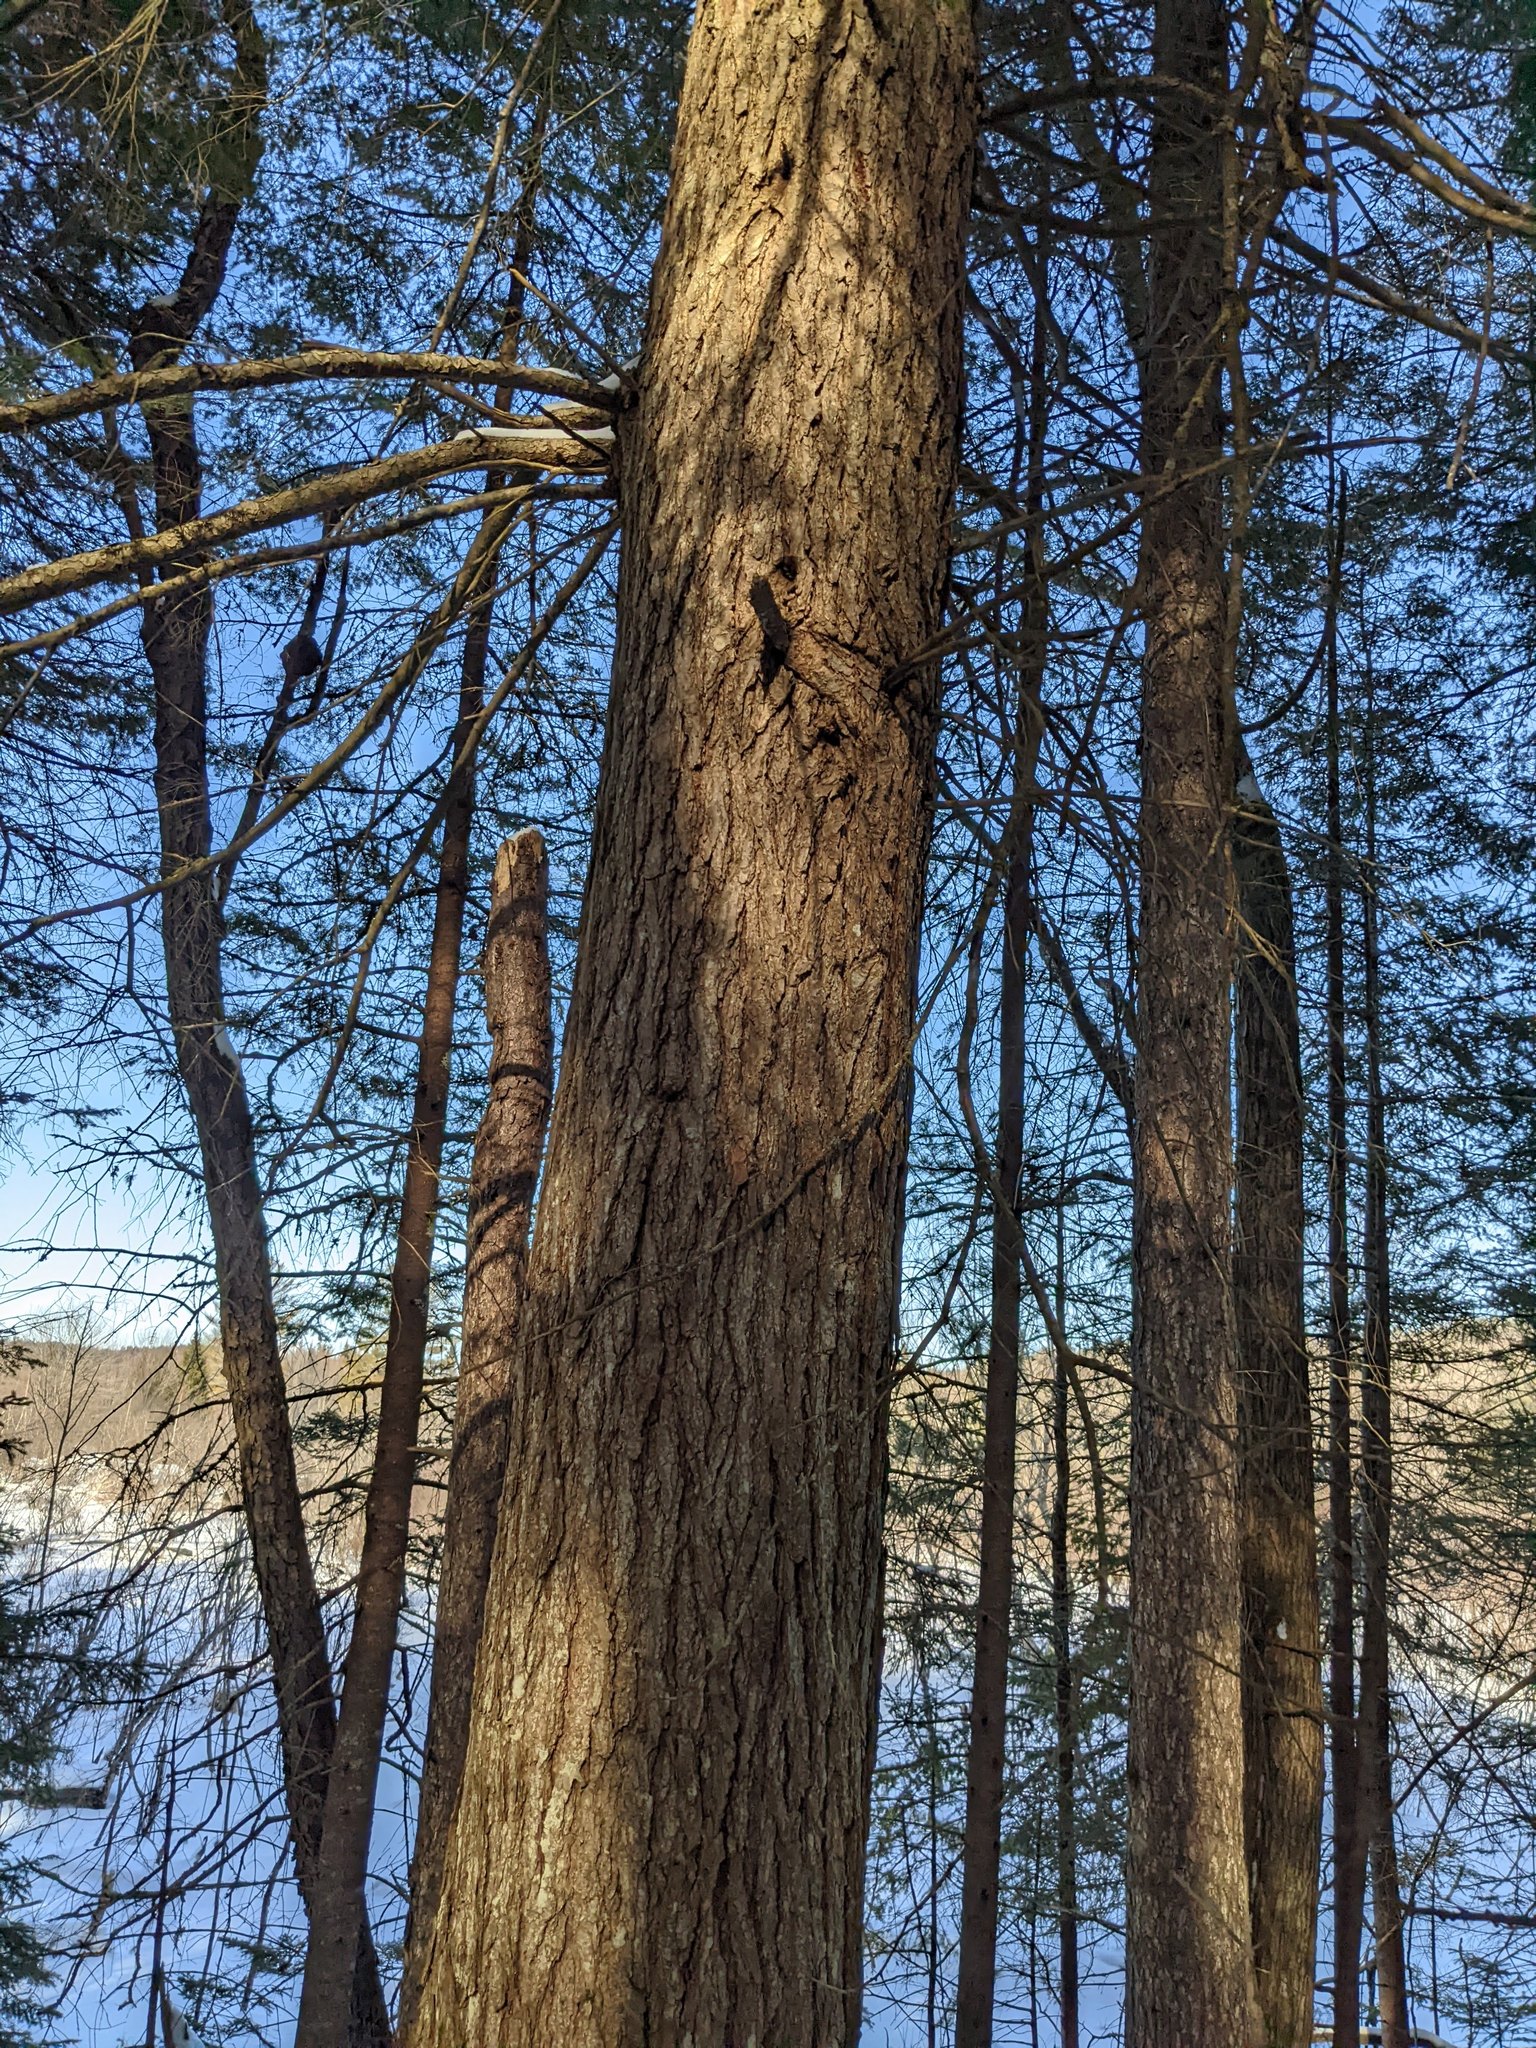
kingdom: Plantae
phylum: Tracheophyta
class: Pinopsida
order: Pinales
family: Pinaceae
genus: Tsuga
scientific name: Tsuga canadensis
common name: Eastern hemlock
